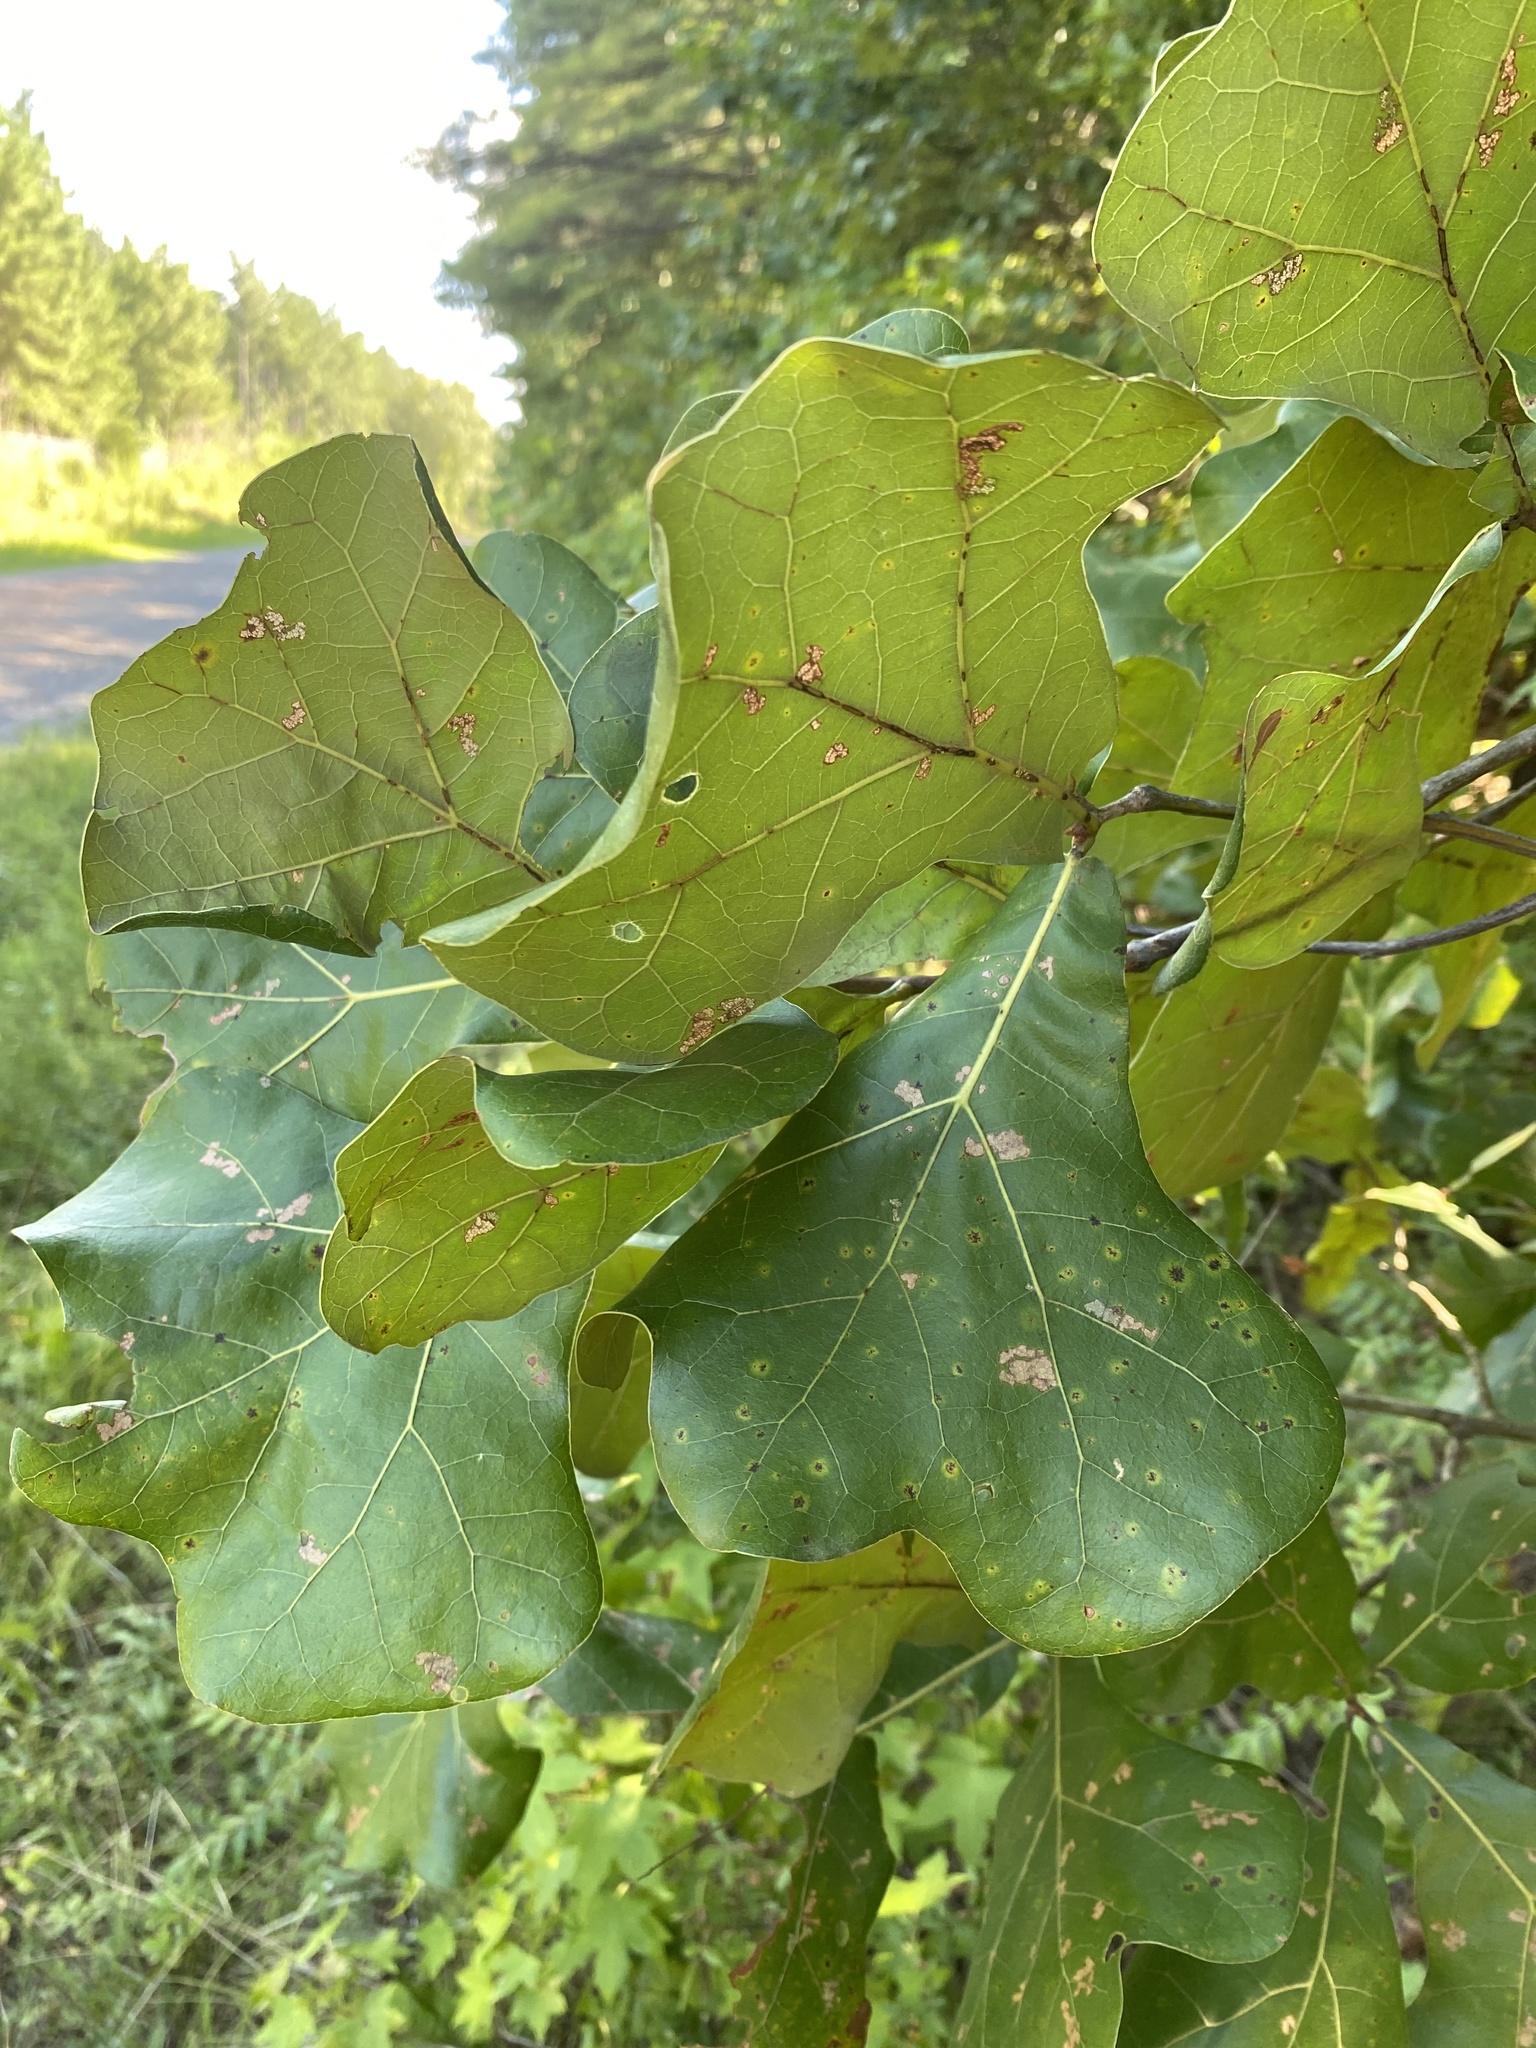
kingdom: Plantae
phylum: Tracheophyta
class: Magnoliopsida
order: Fagales
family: Fagaceae
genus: Quercus
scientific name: Quercus marilandica
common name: Blackjack oak
